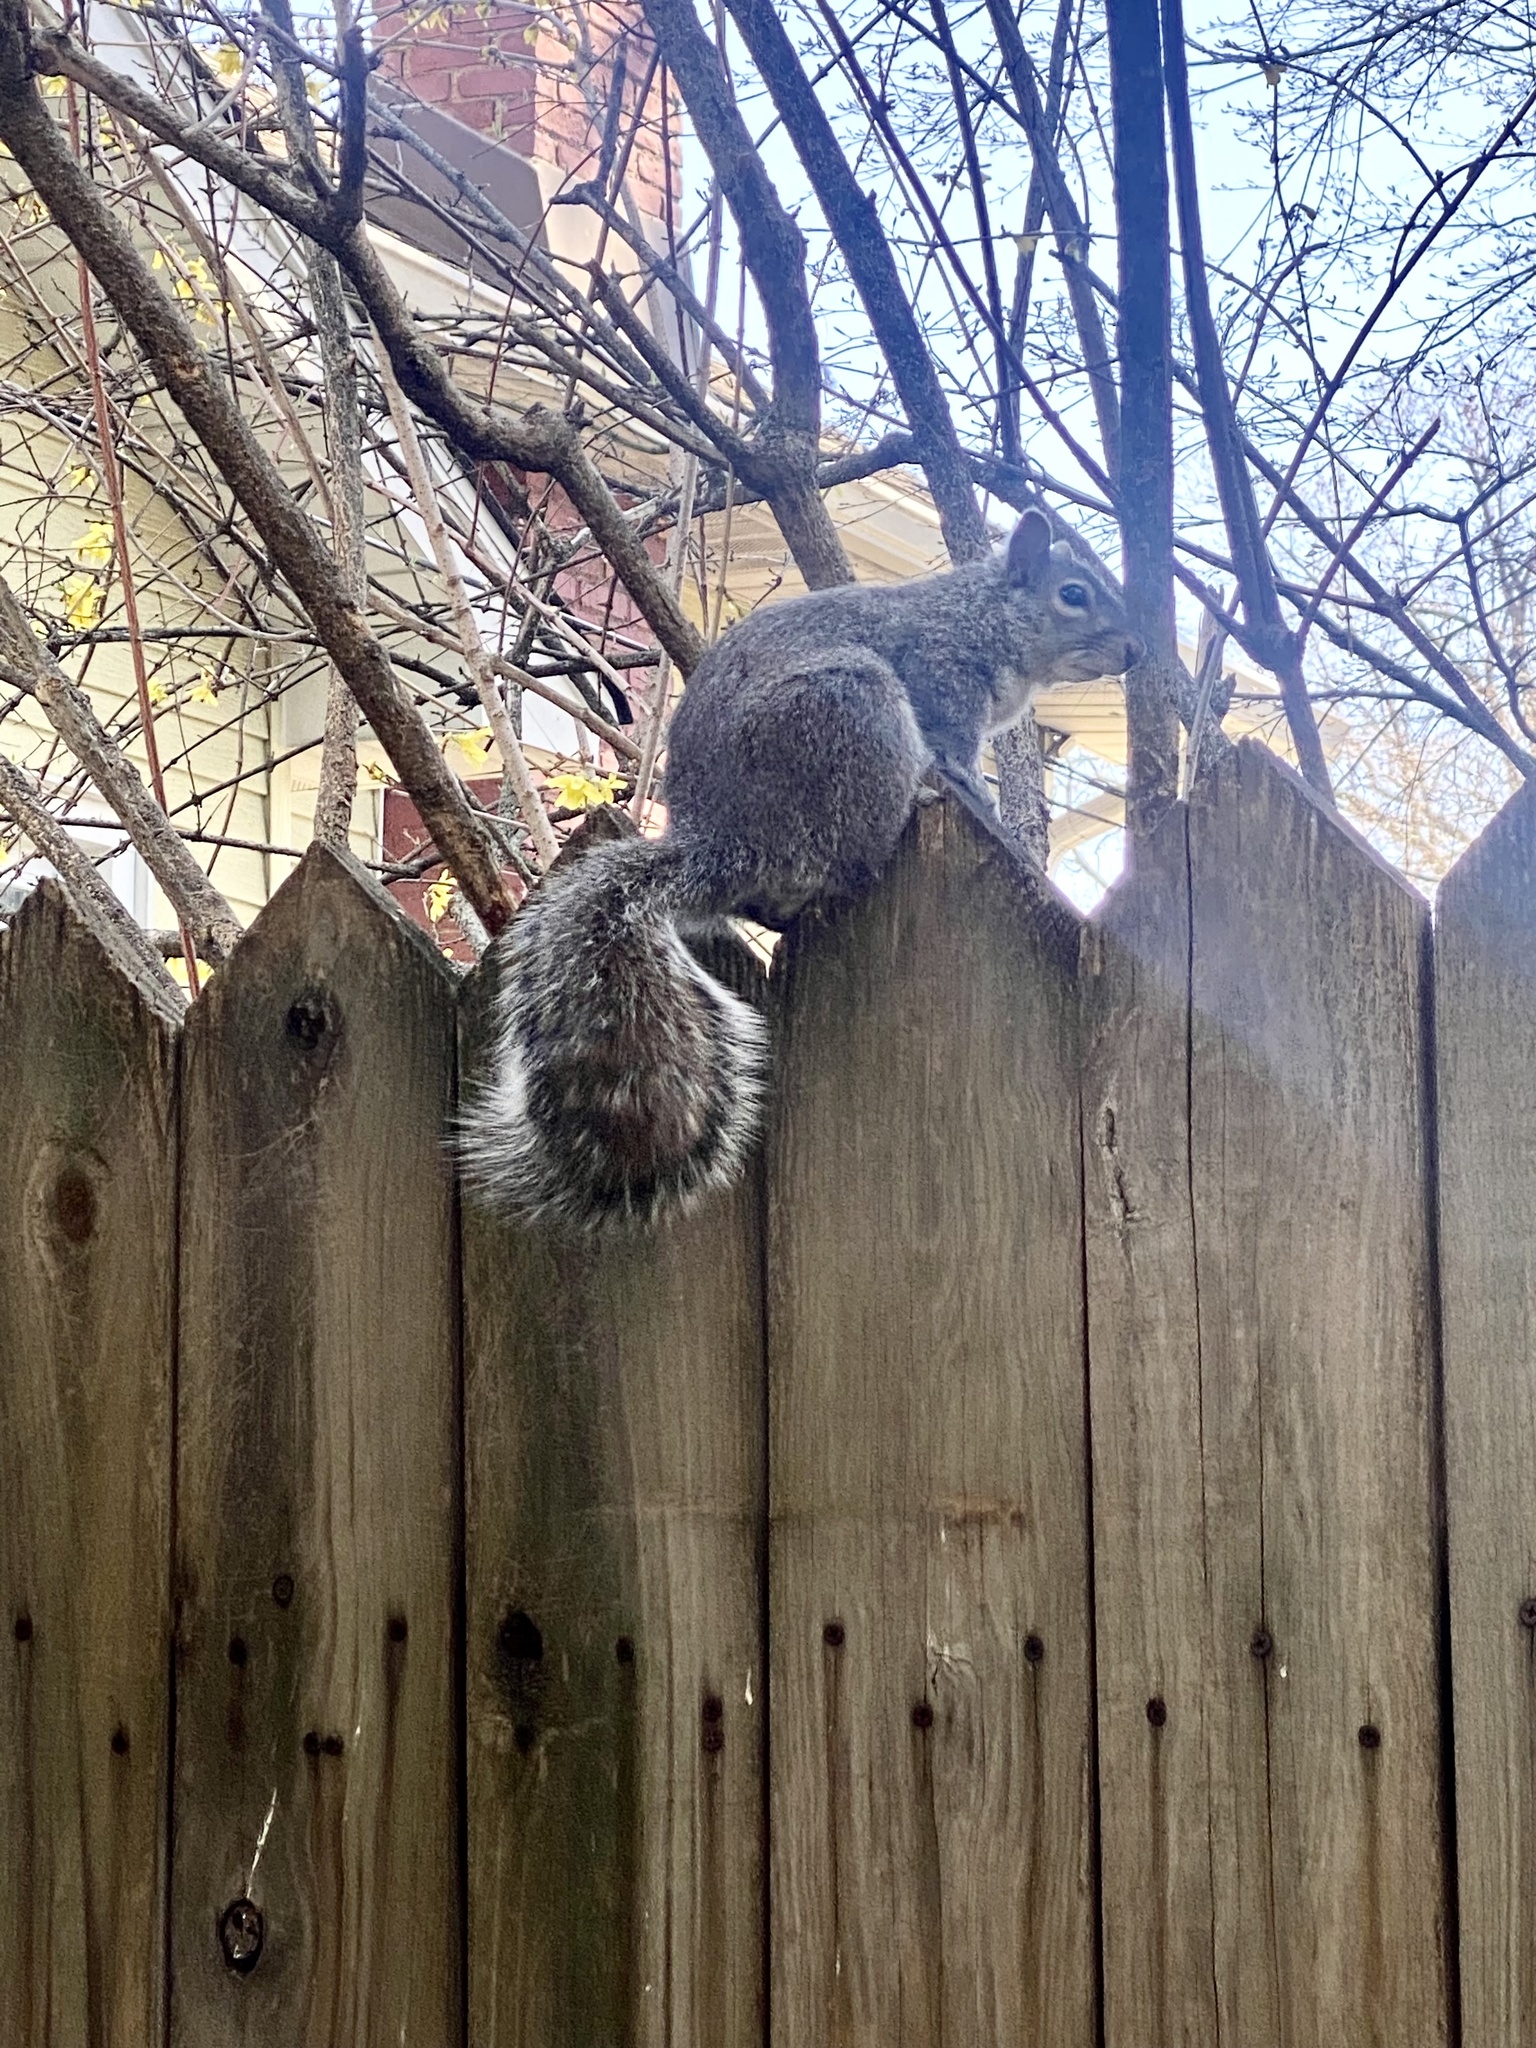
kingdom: Animalia
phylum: Chordata
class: Mammalia
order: Rodentia
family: Sciuridae
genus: Sciurus
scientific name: Sciurus carolinensis
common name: Eastern gray squirrel
